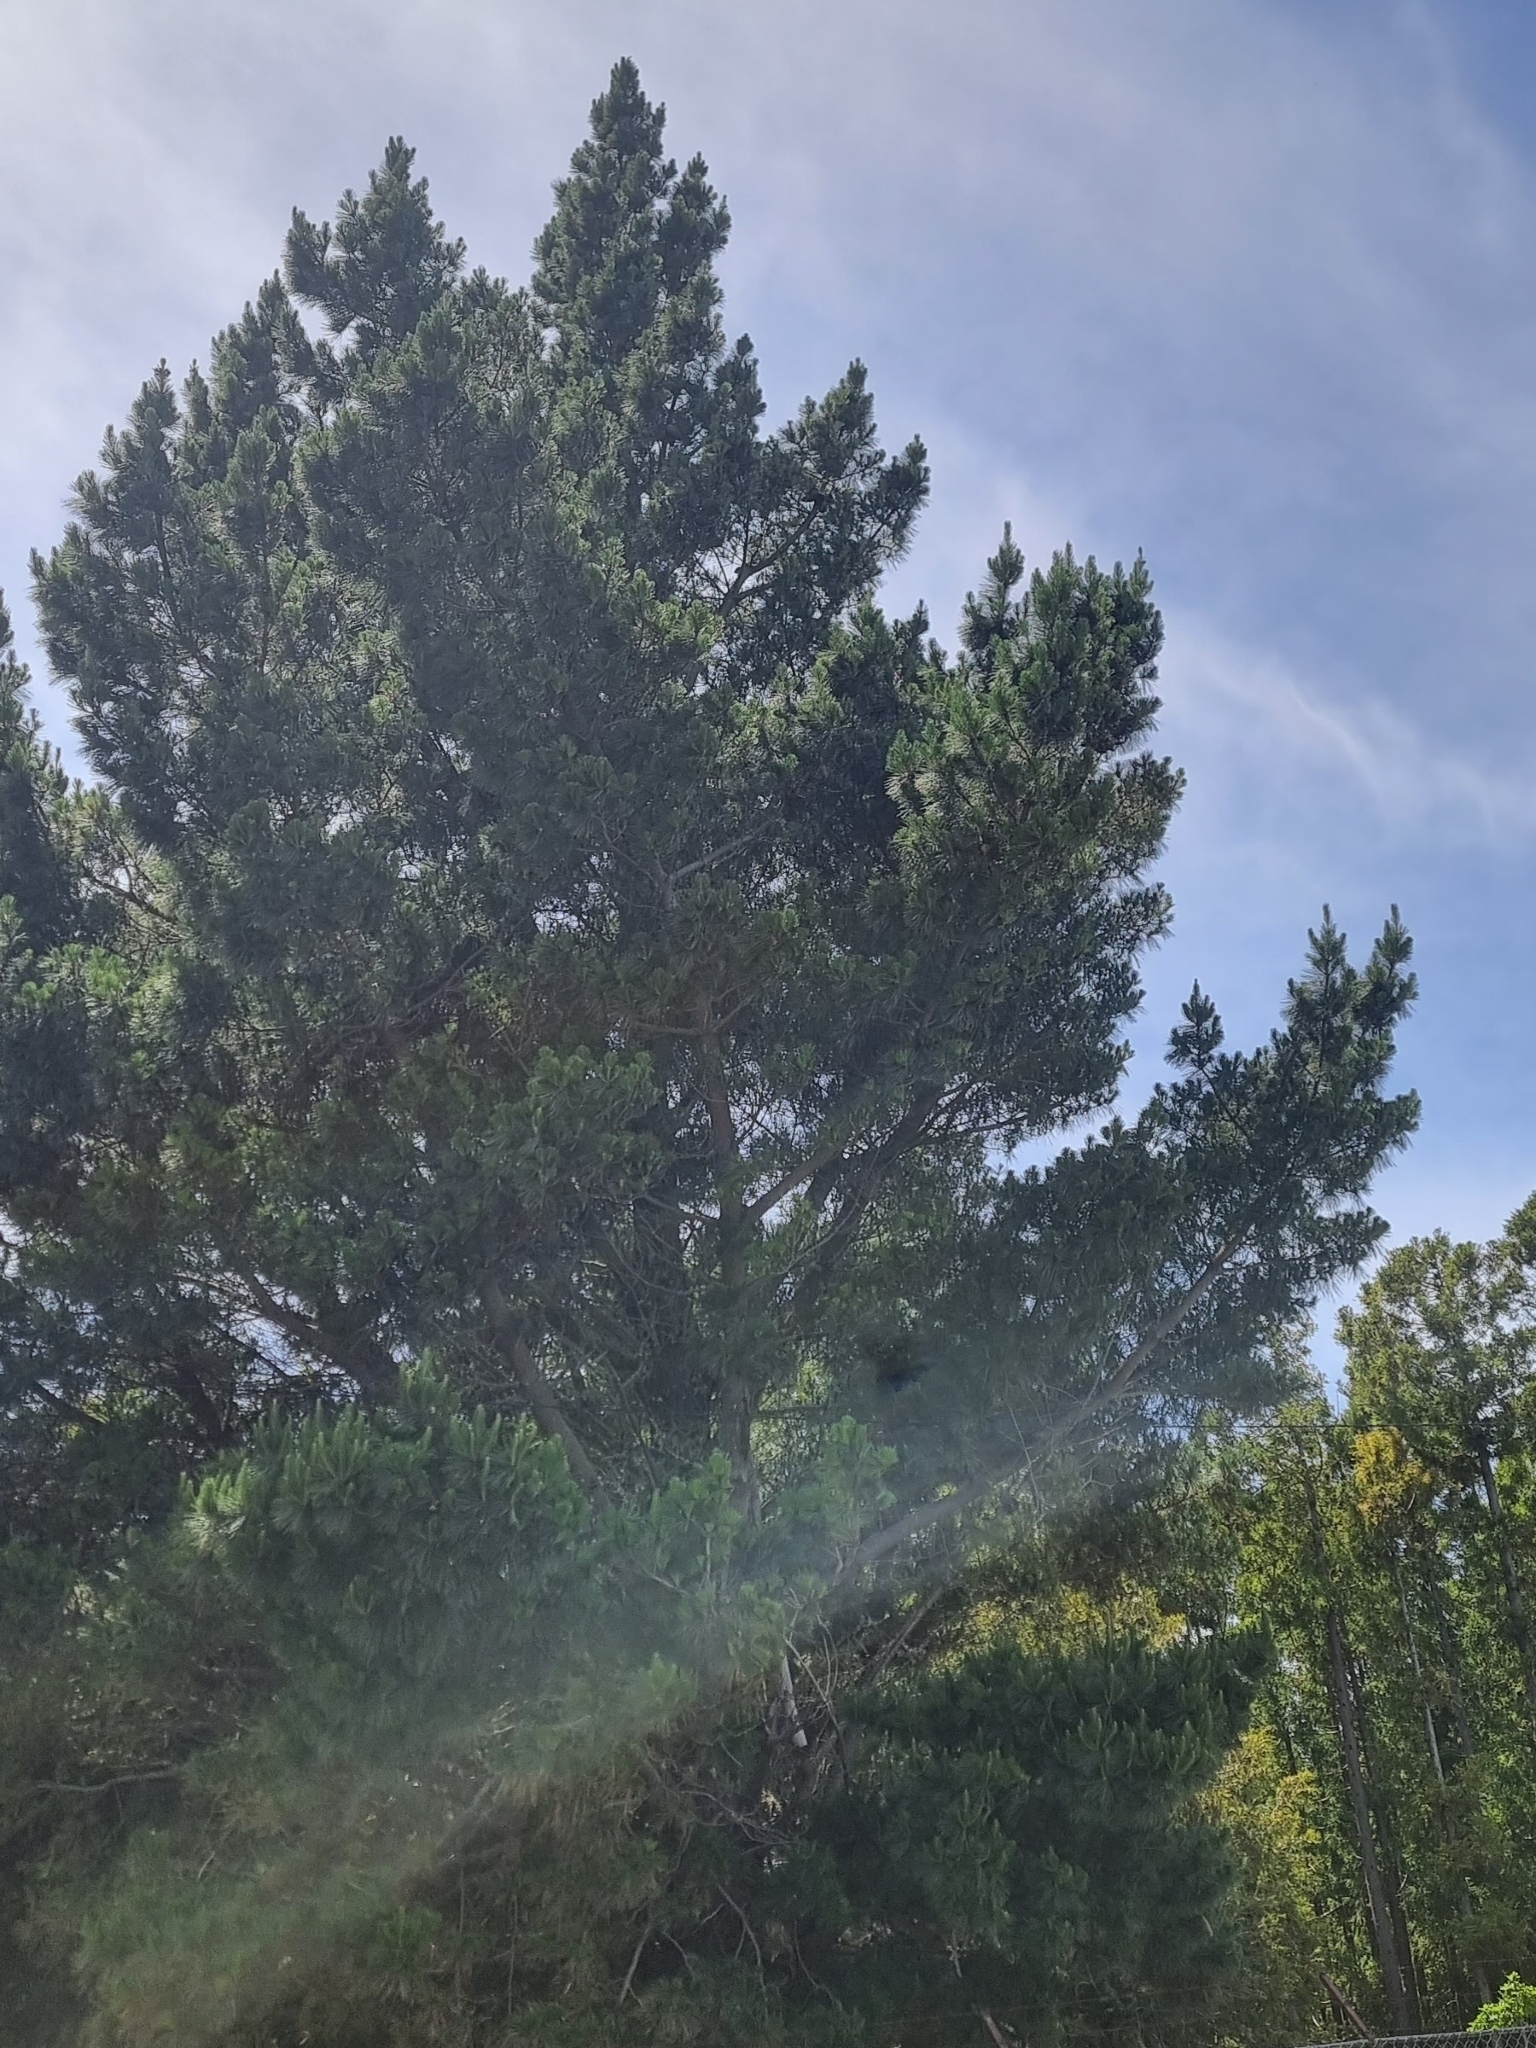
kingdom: Plantae
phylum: Tracheophyta
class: Pinopsida
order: Pinales
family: Pinaceae
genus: Pinus
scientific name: Pinus pinaster
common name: Maritime pine
